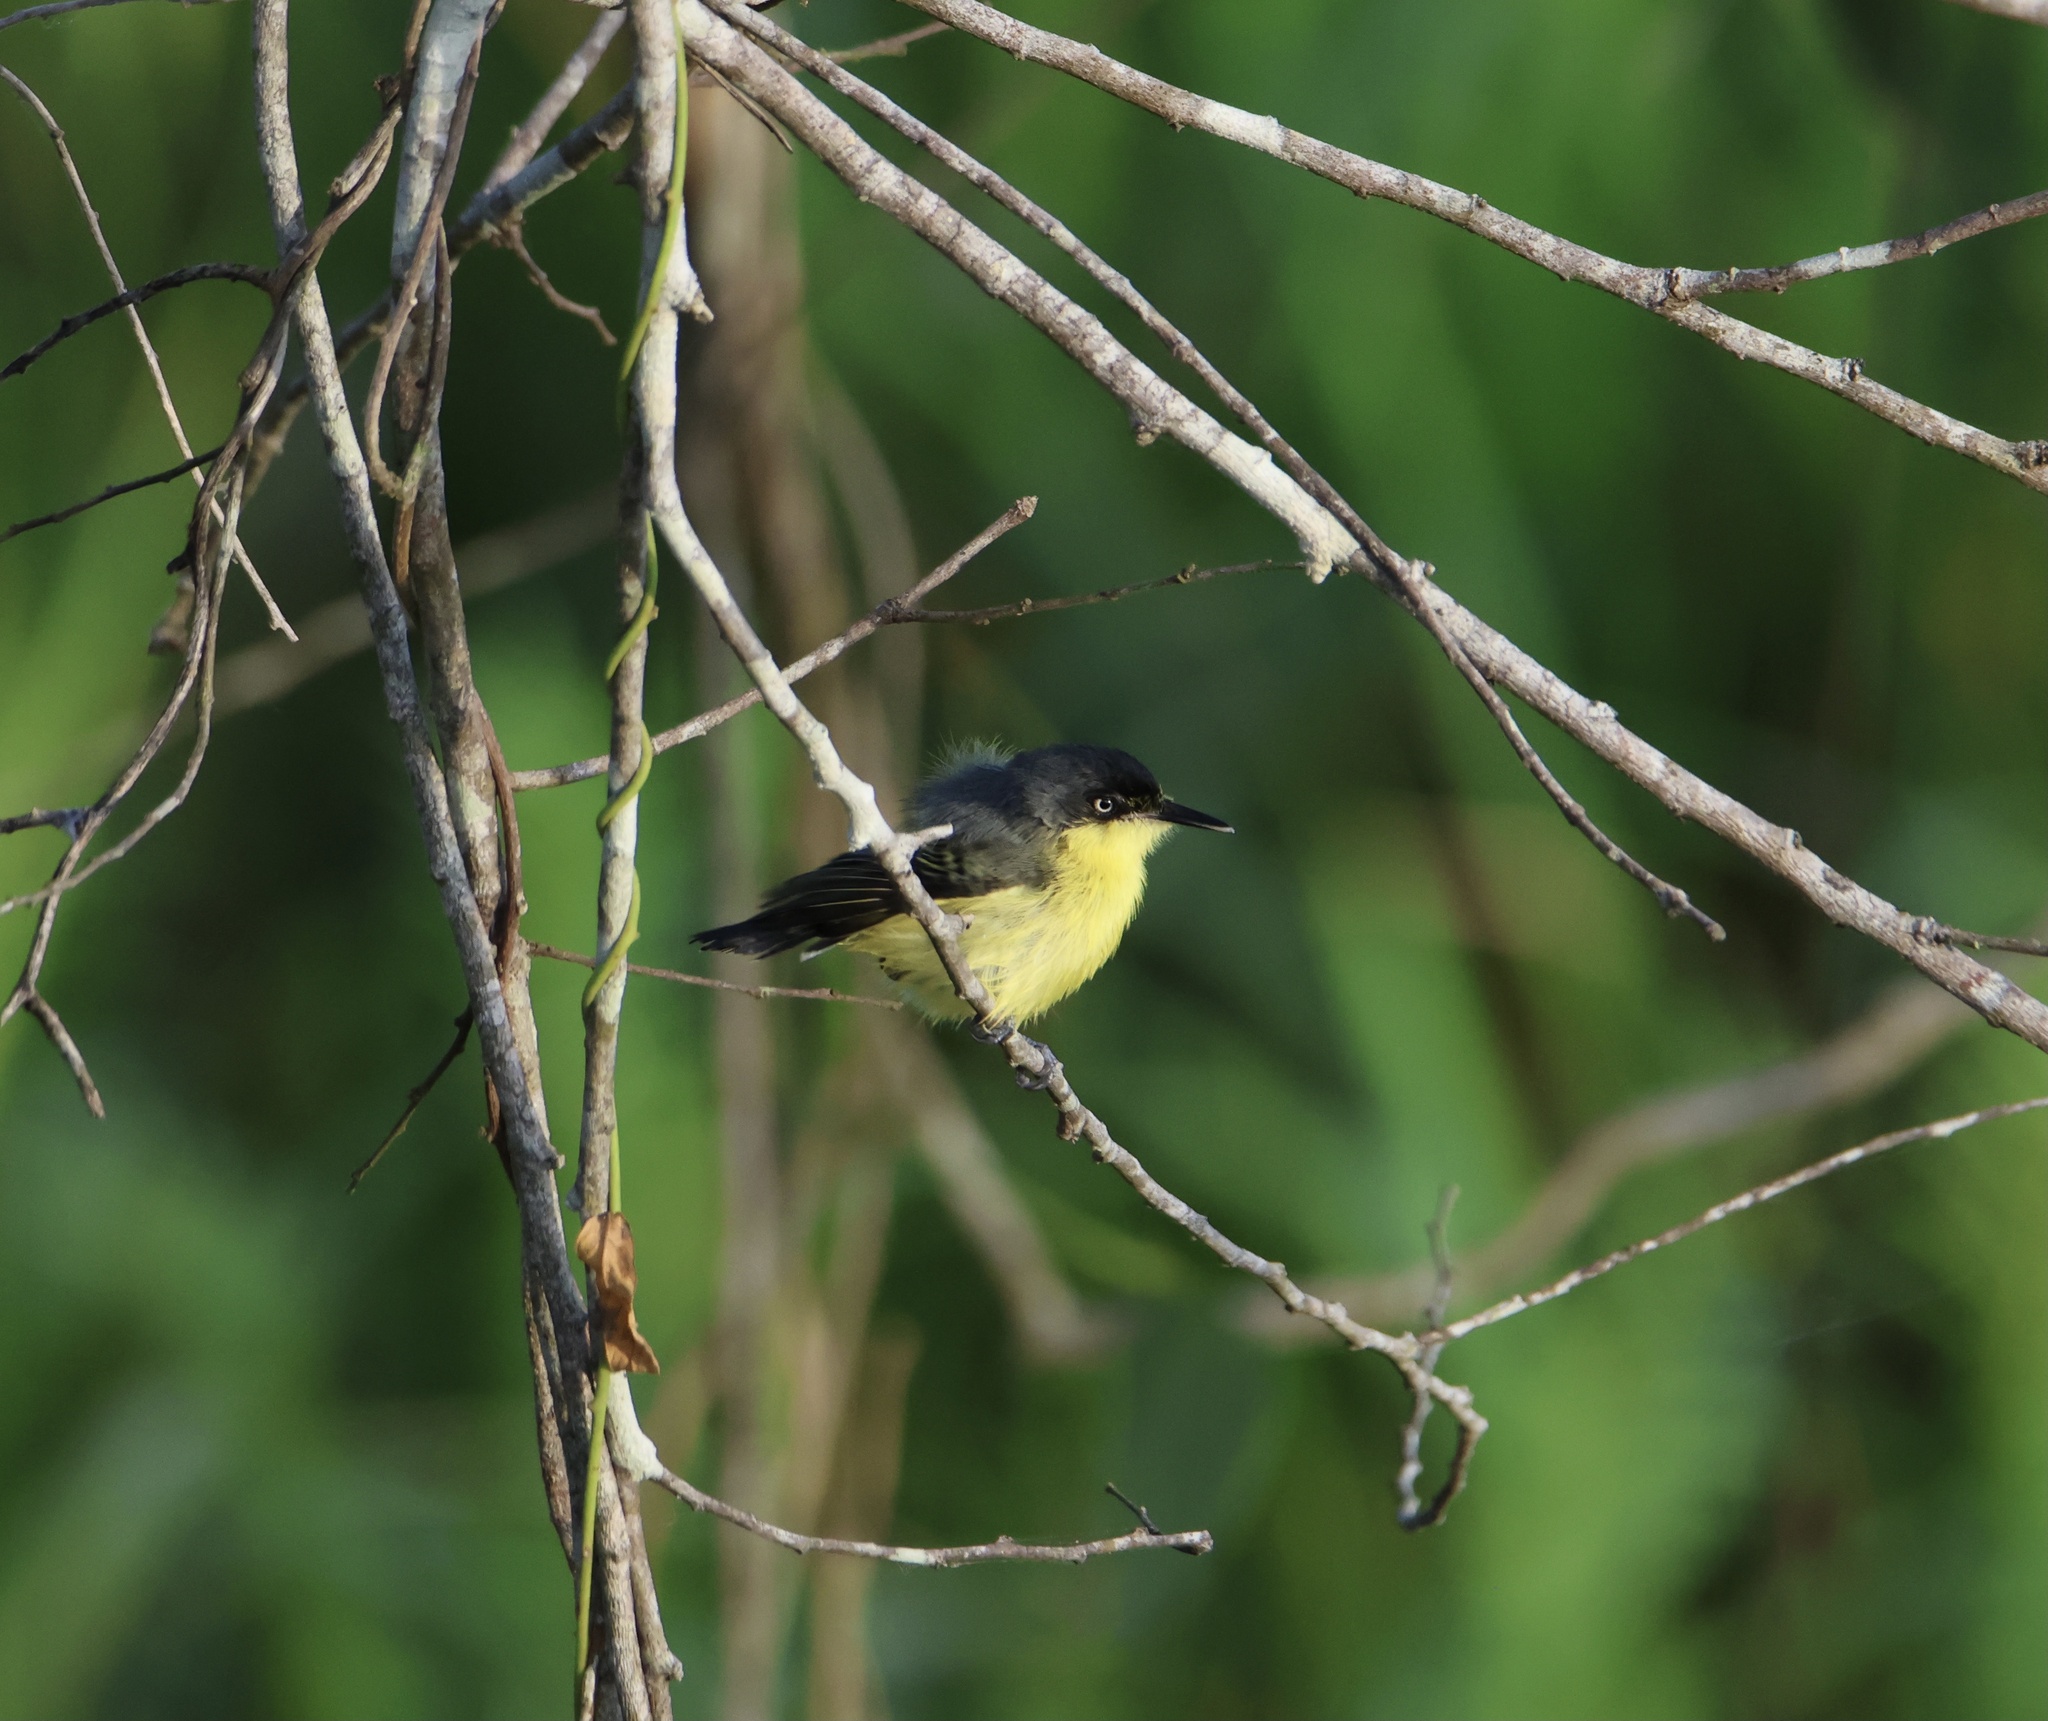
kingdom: Animalia
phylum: Chordata
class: Aves
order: Passeriformes
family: Tyrannidae
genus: Todirostrum
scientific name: Todirostrum cinereum
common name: Common tody-flycatcher
